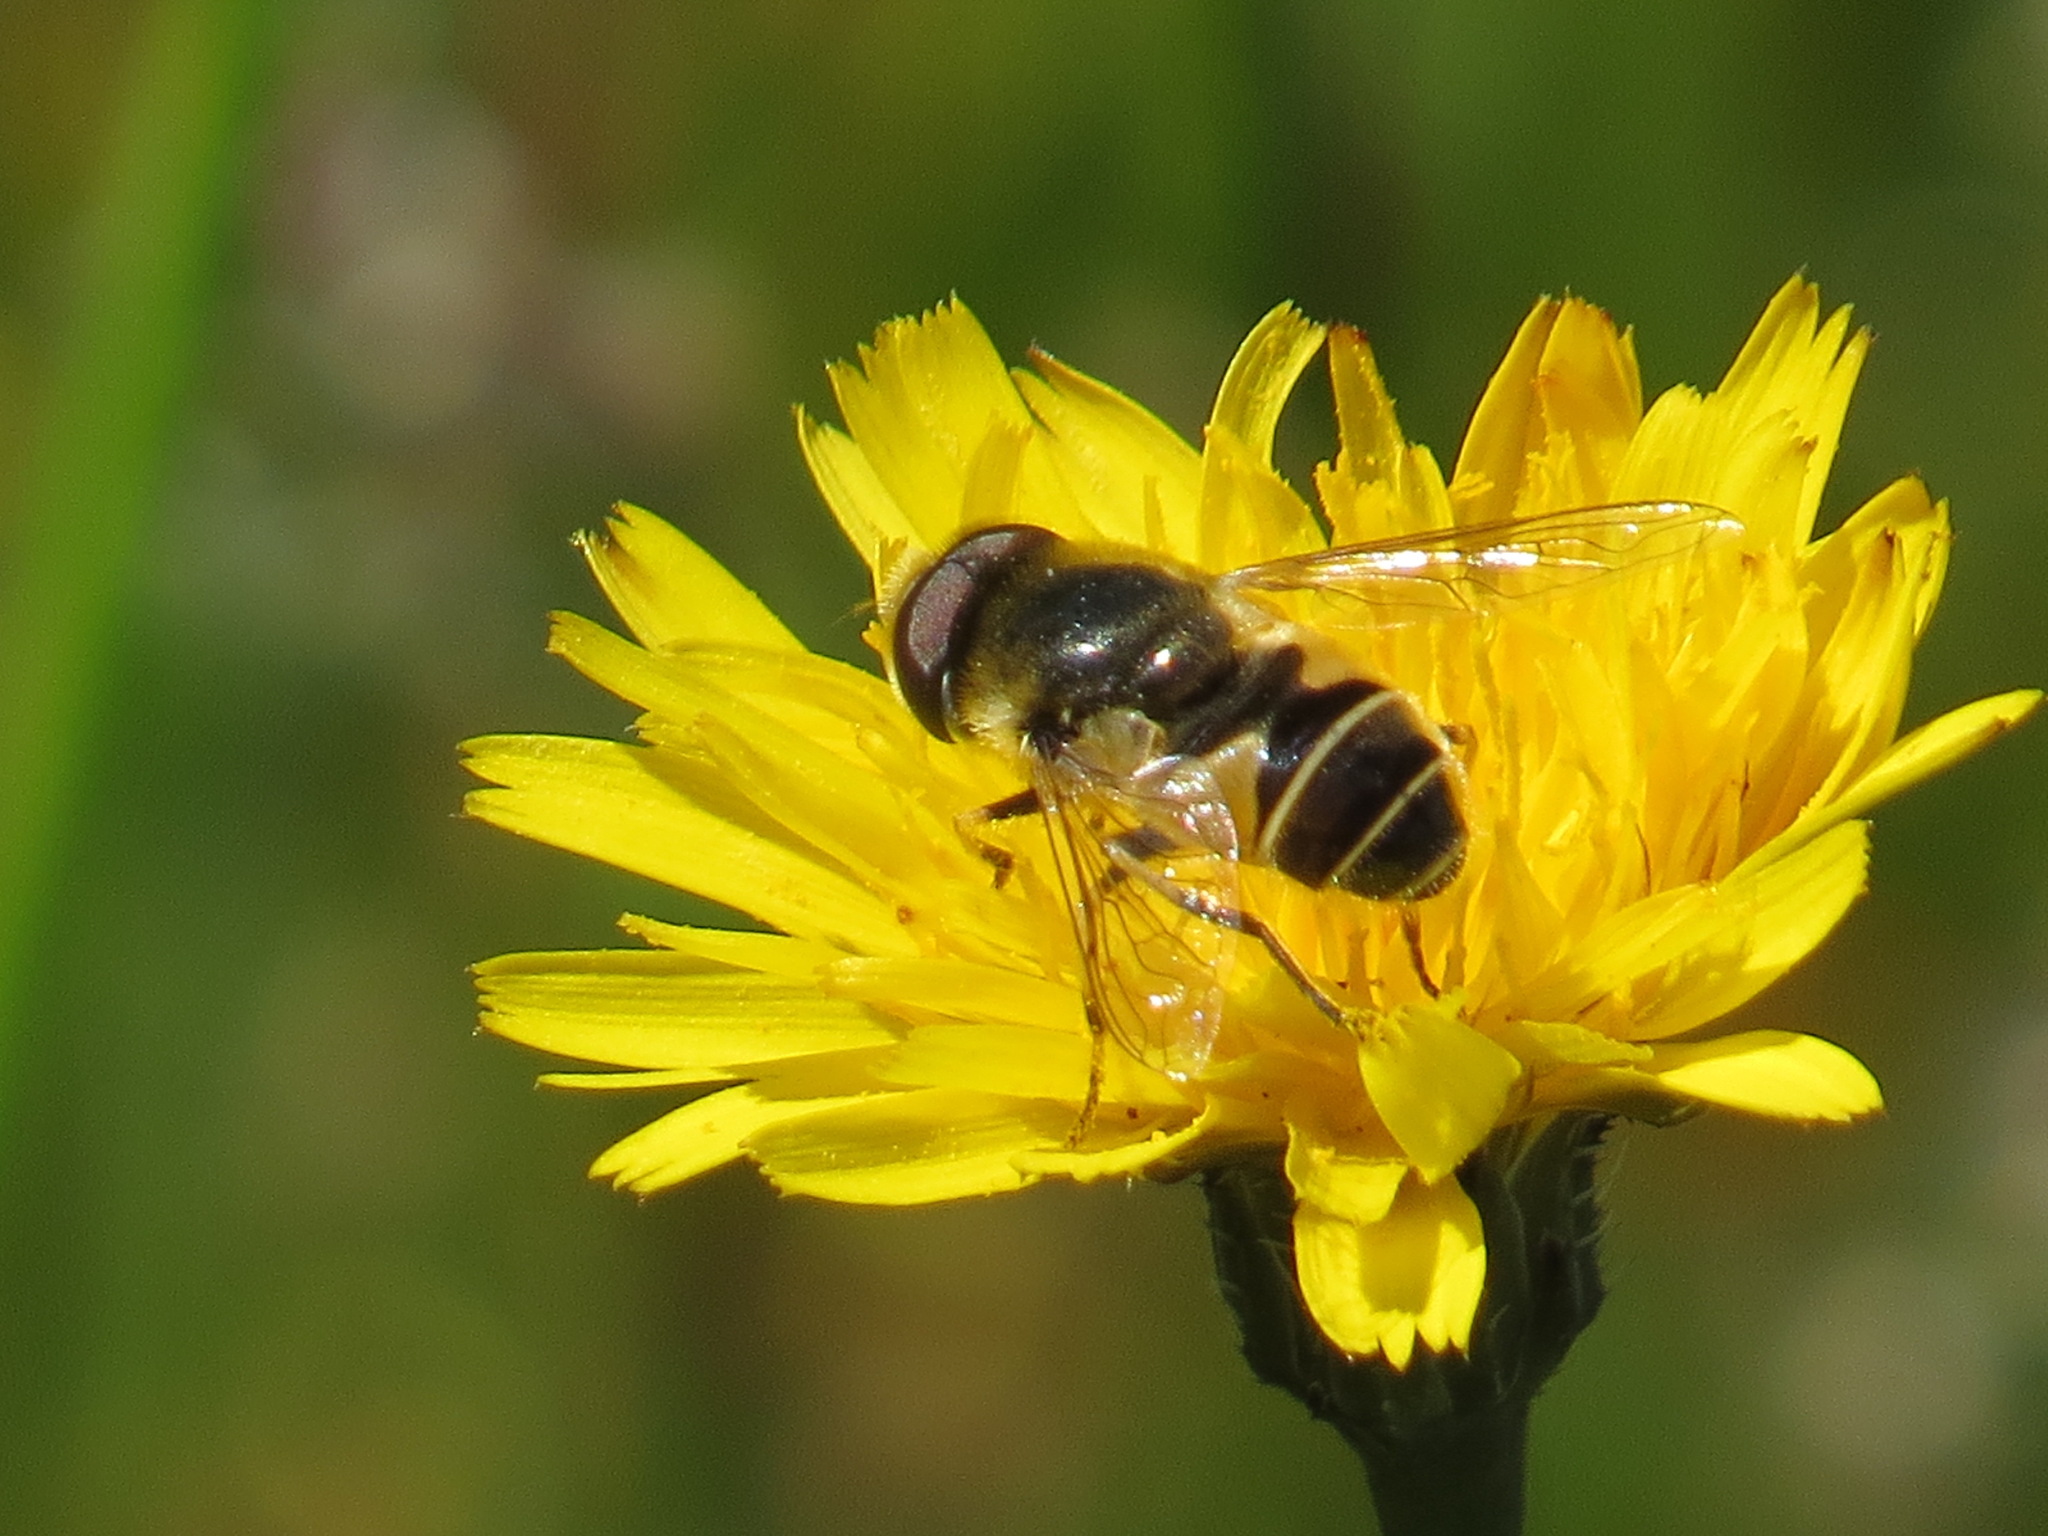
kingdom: Animalia
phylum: Arthropoda
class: Insecta
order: Diptera
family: Syrphidae
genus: Eristalis
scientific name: Eristalis hirta
